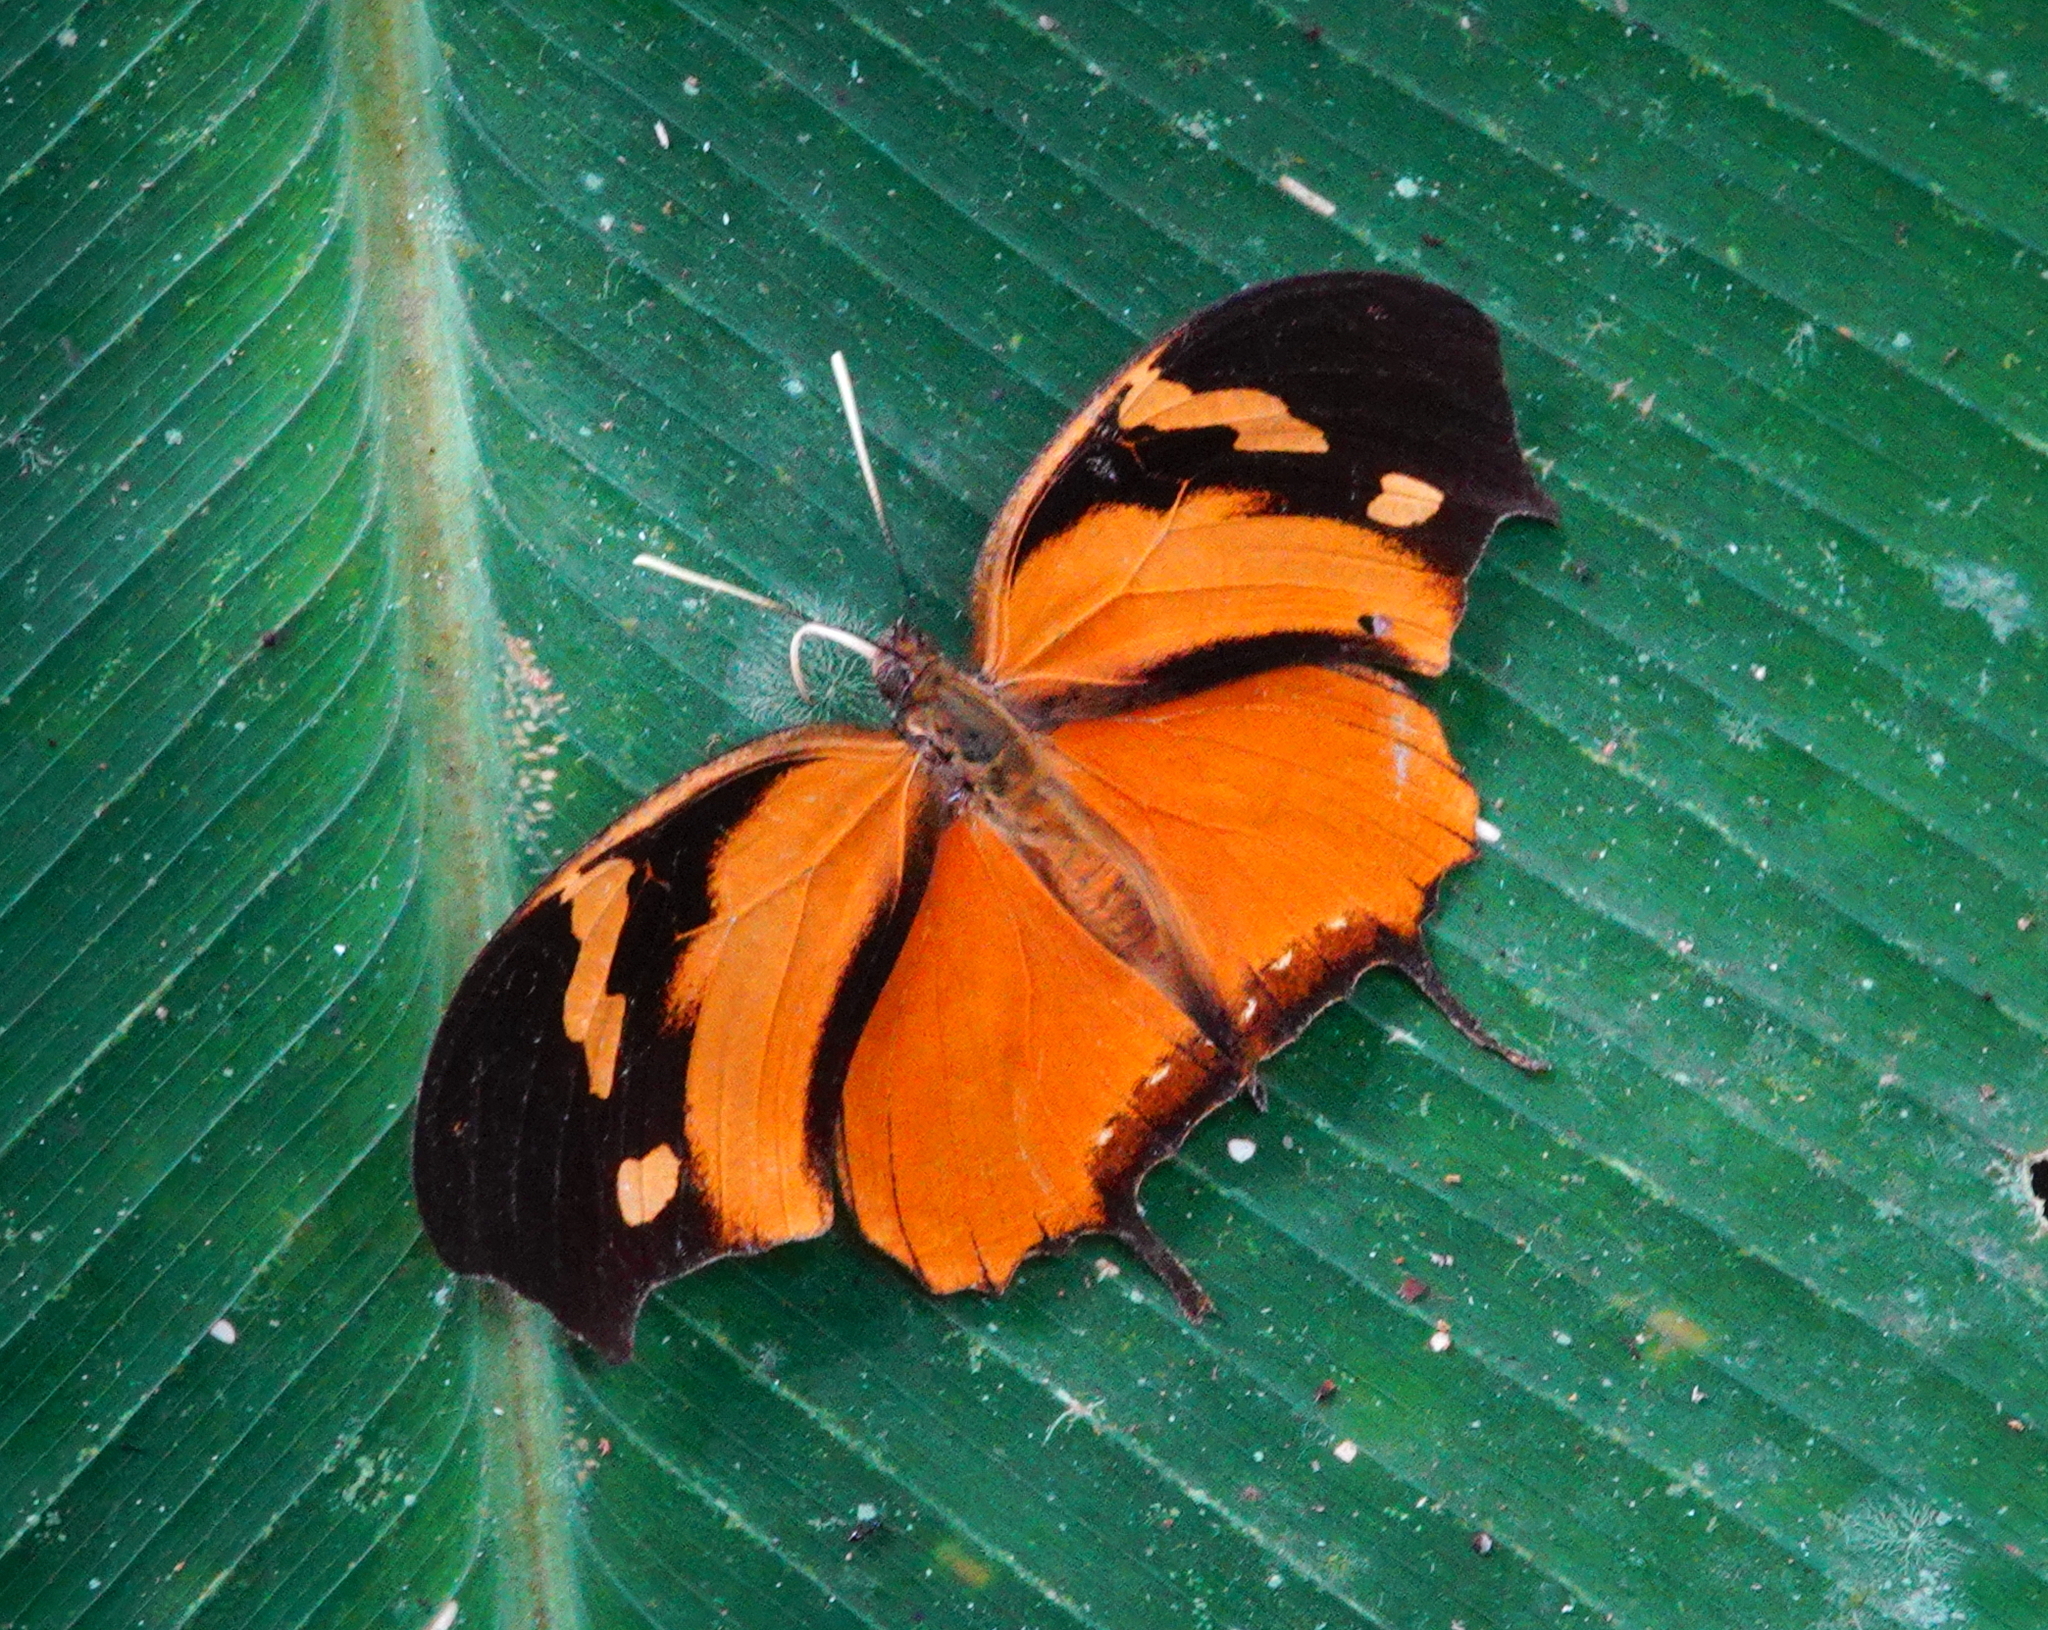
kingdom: Animalia
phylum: Arthropoda
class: Insecta
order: Lepidoptera
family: Nymphalidae
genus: Consul
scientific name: Consul fabius
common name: Tiger leafwing
